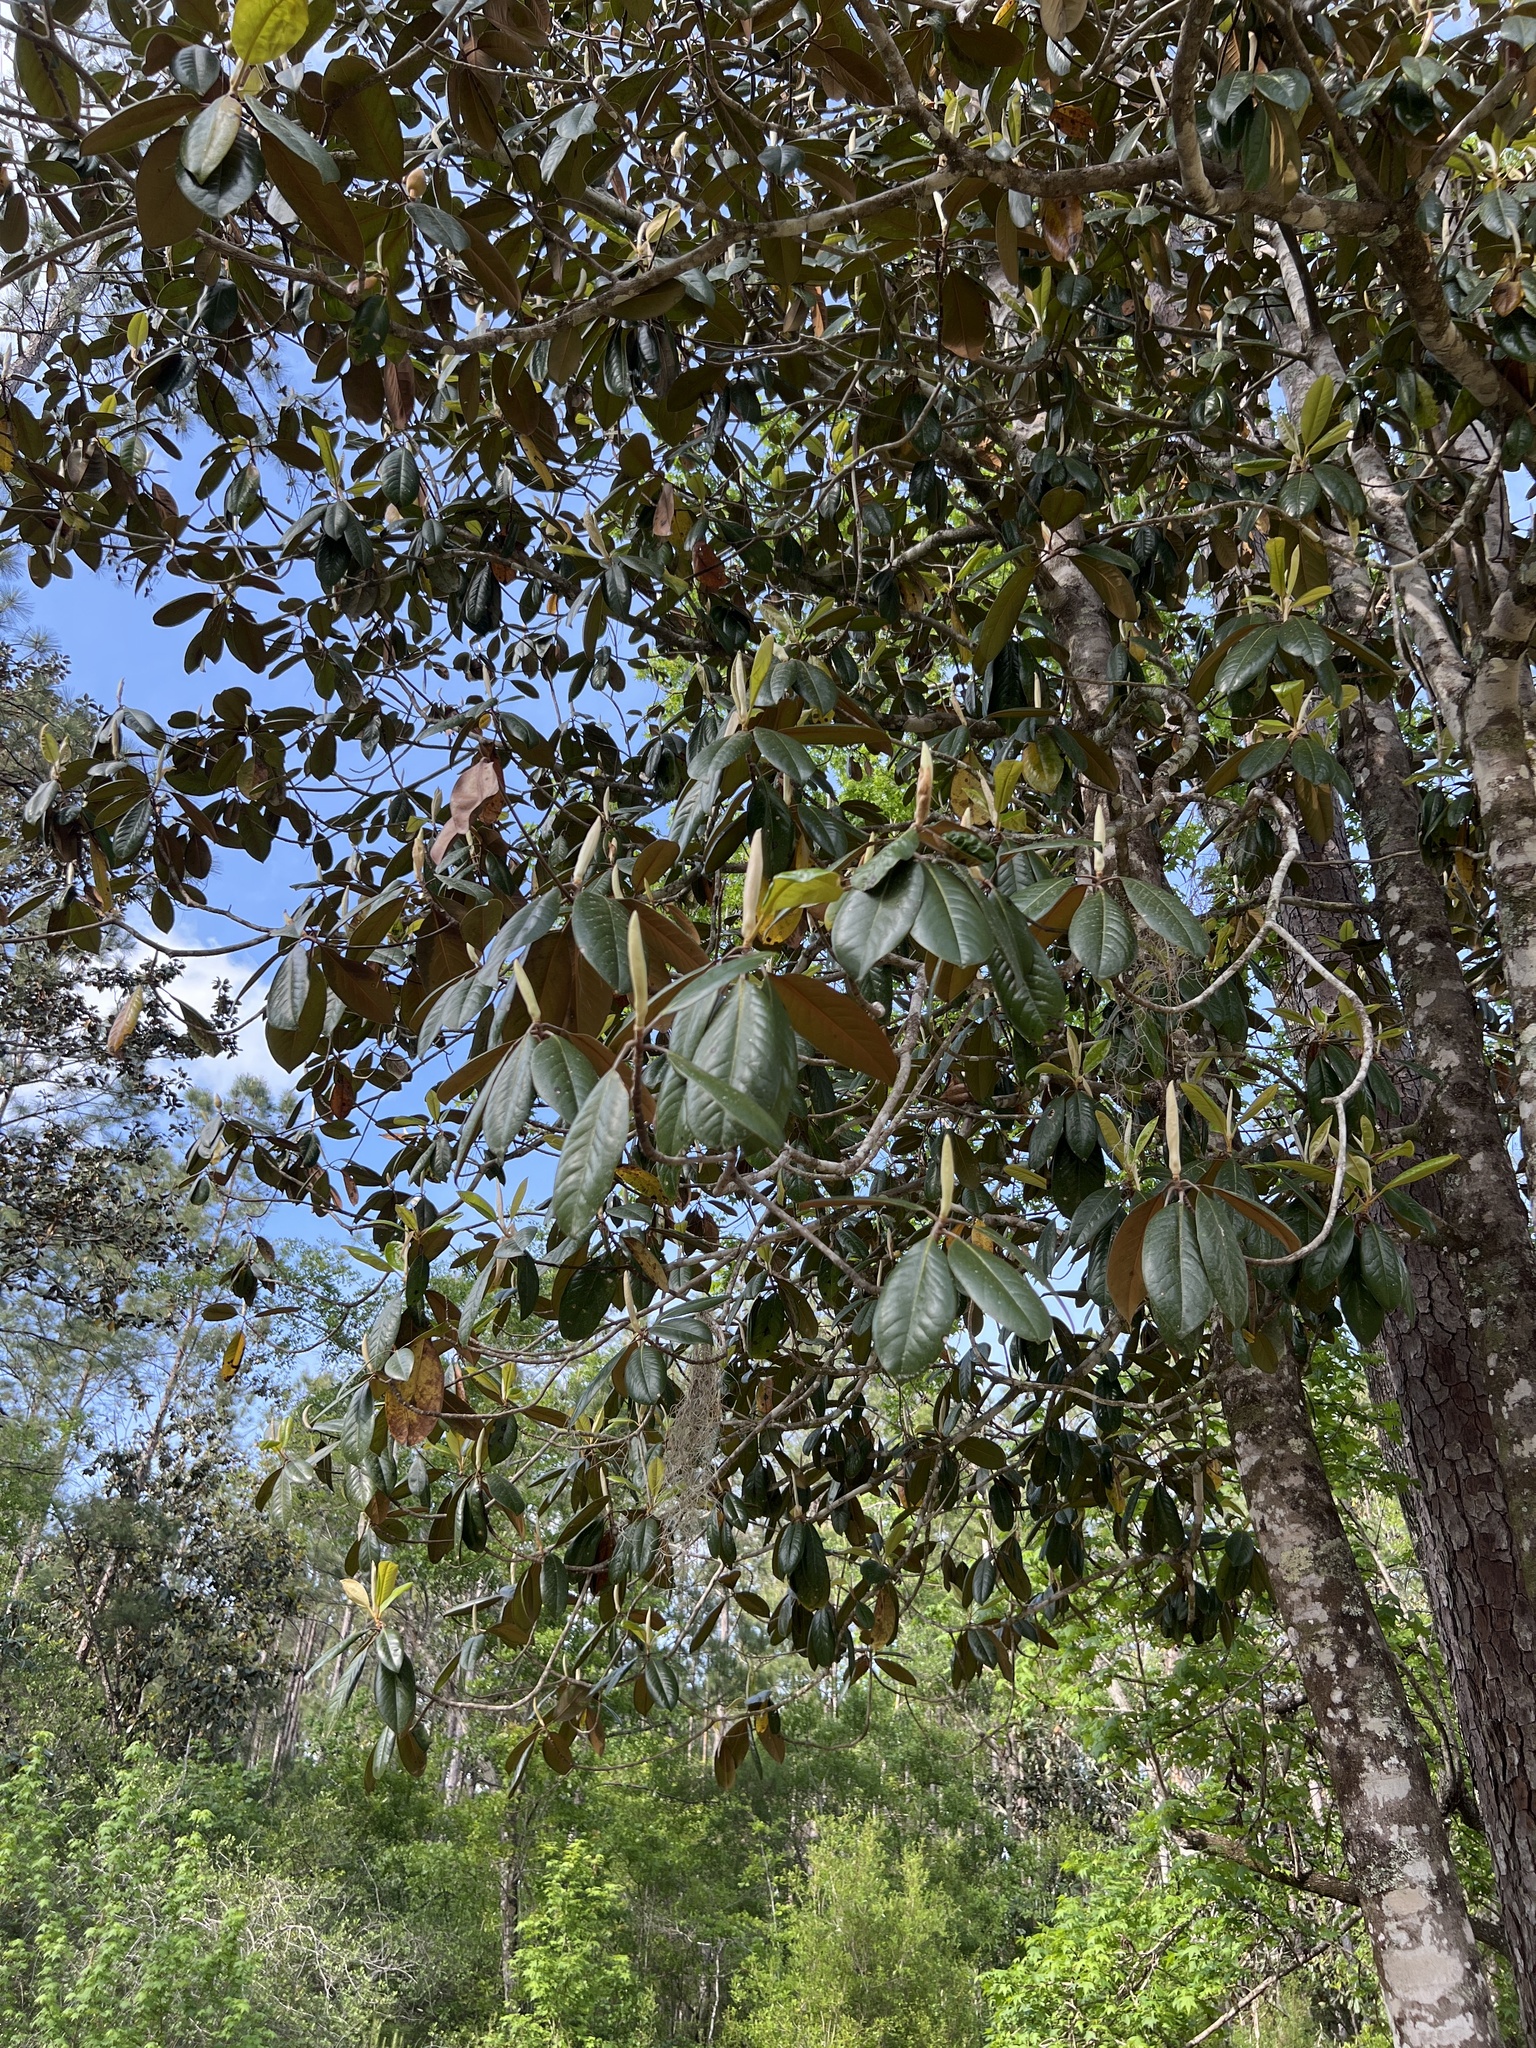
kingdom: Plantae
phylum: Tracheophyta
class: Magnoliopsida
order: Magnoliales
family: Magnoliaceae
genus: Magnolia
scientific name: Magnolia grandiflora
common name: Southern magnolia
